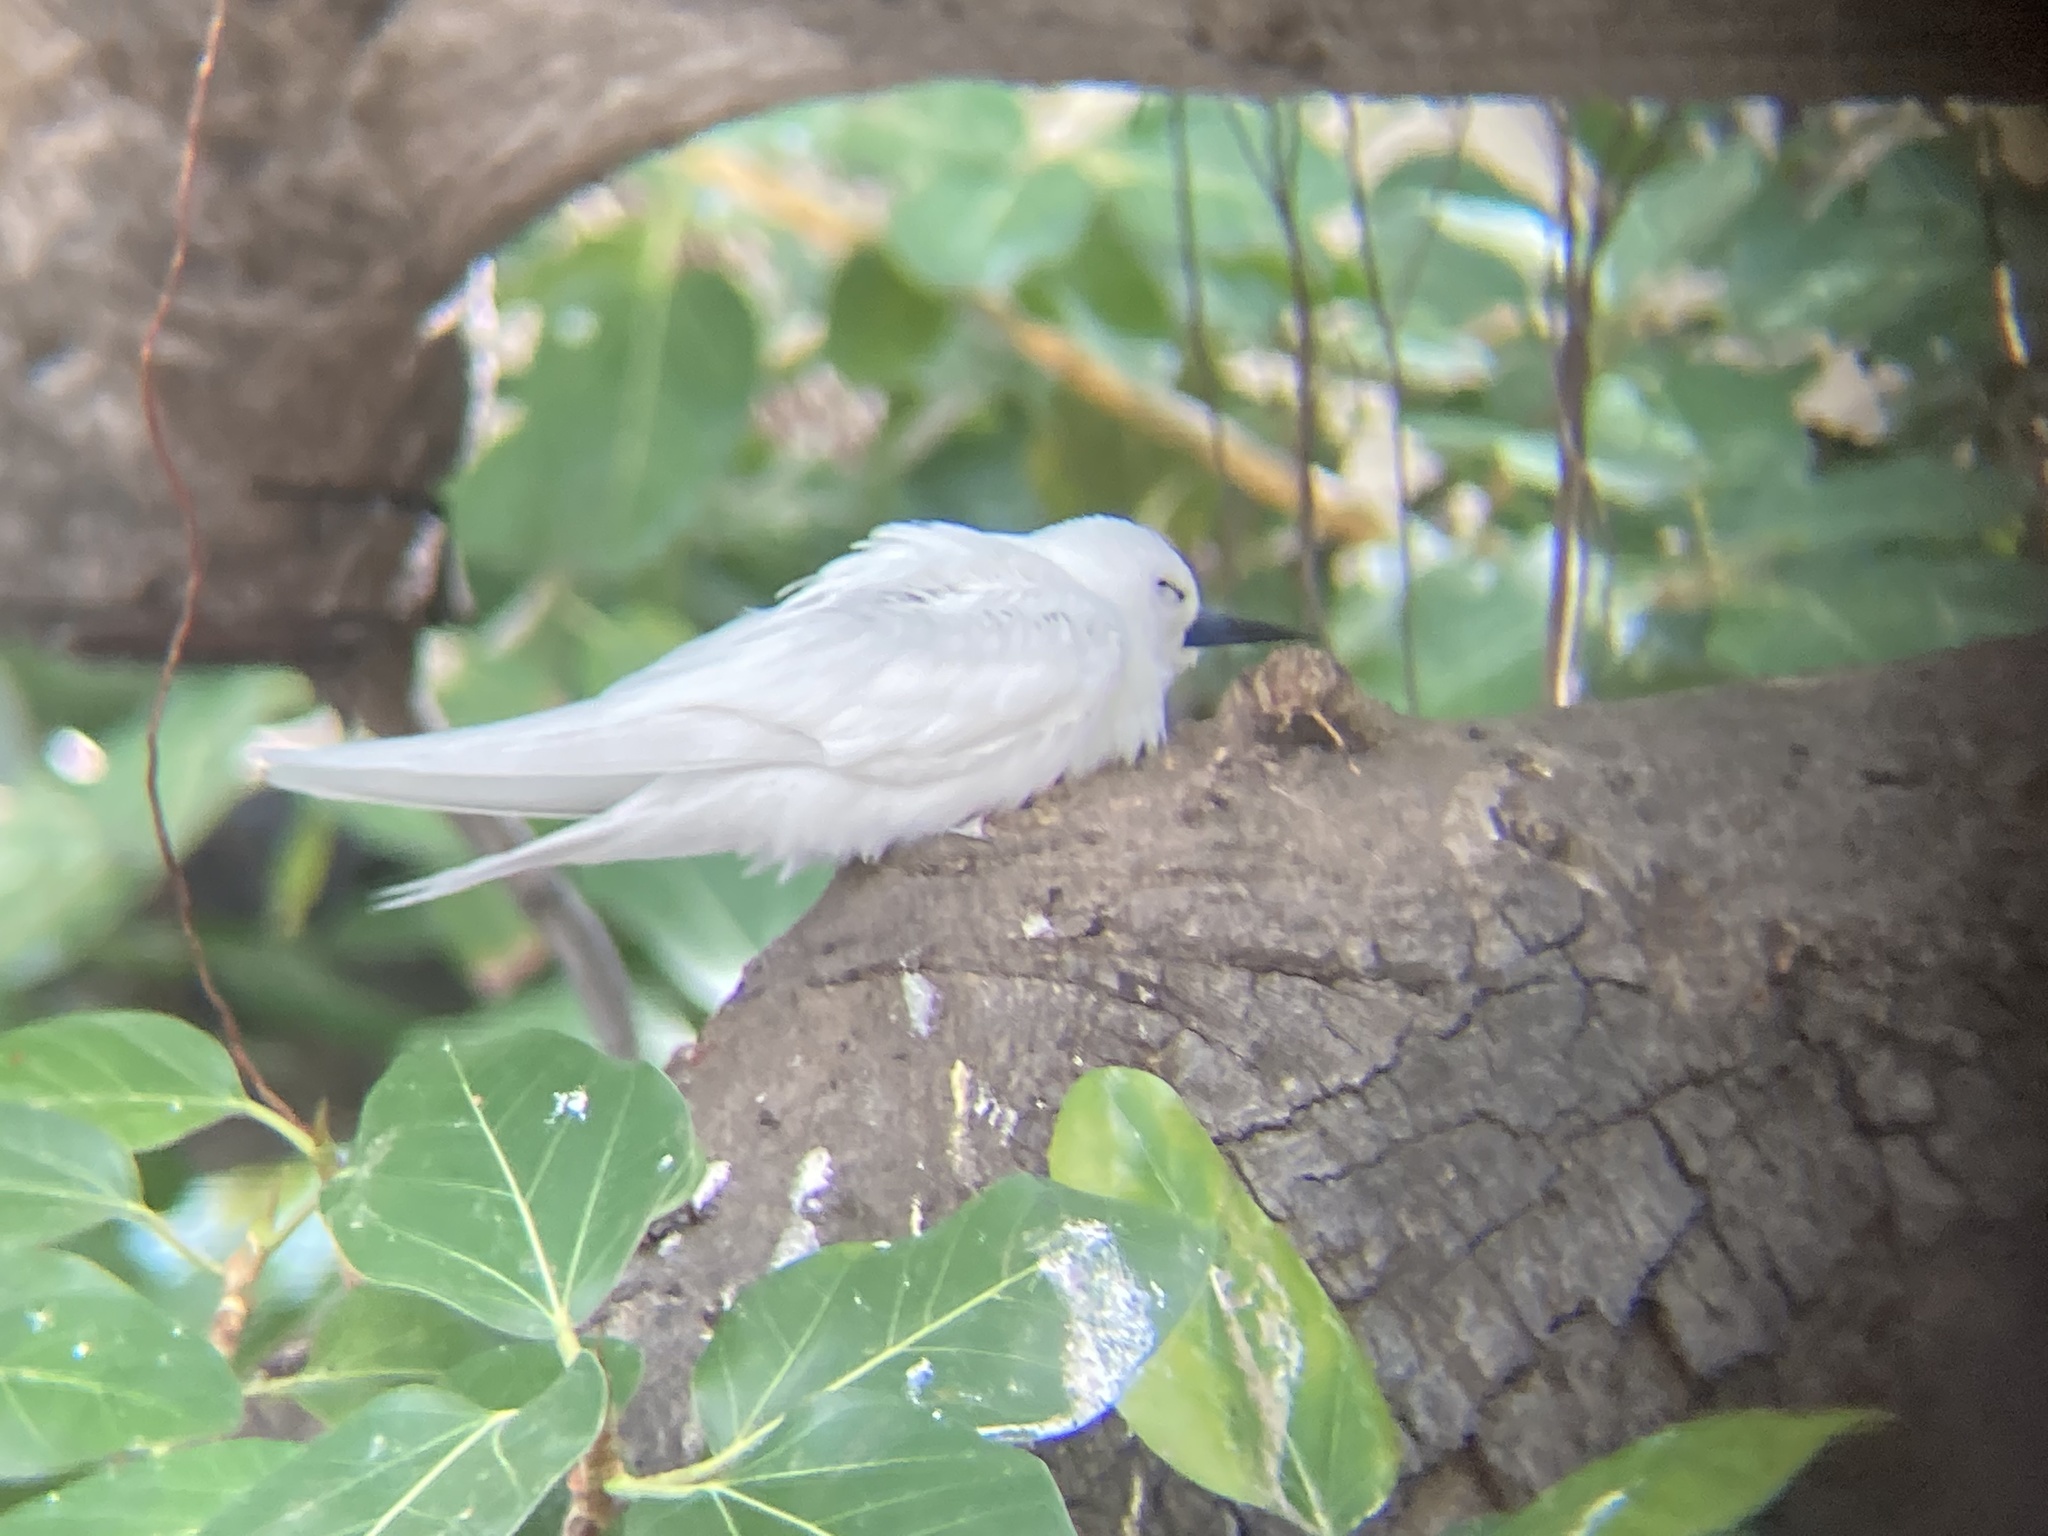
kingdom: Animalia
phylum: Chordata
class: Aves
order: Charadriiformes
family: Laridae
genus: Gygis
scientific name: Gygis alba
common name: White tern
